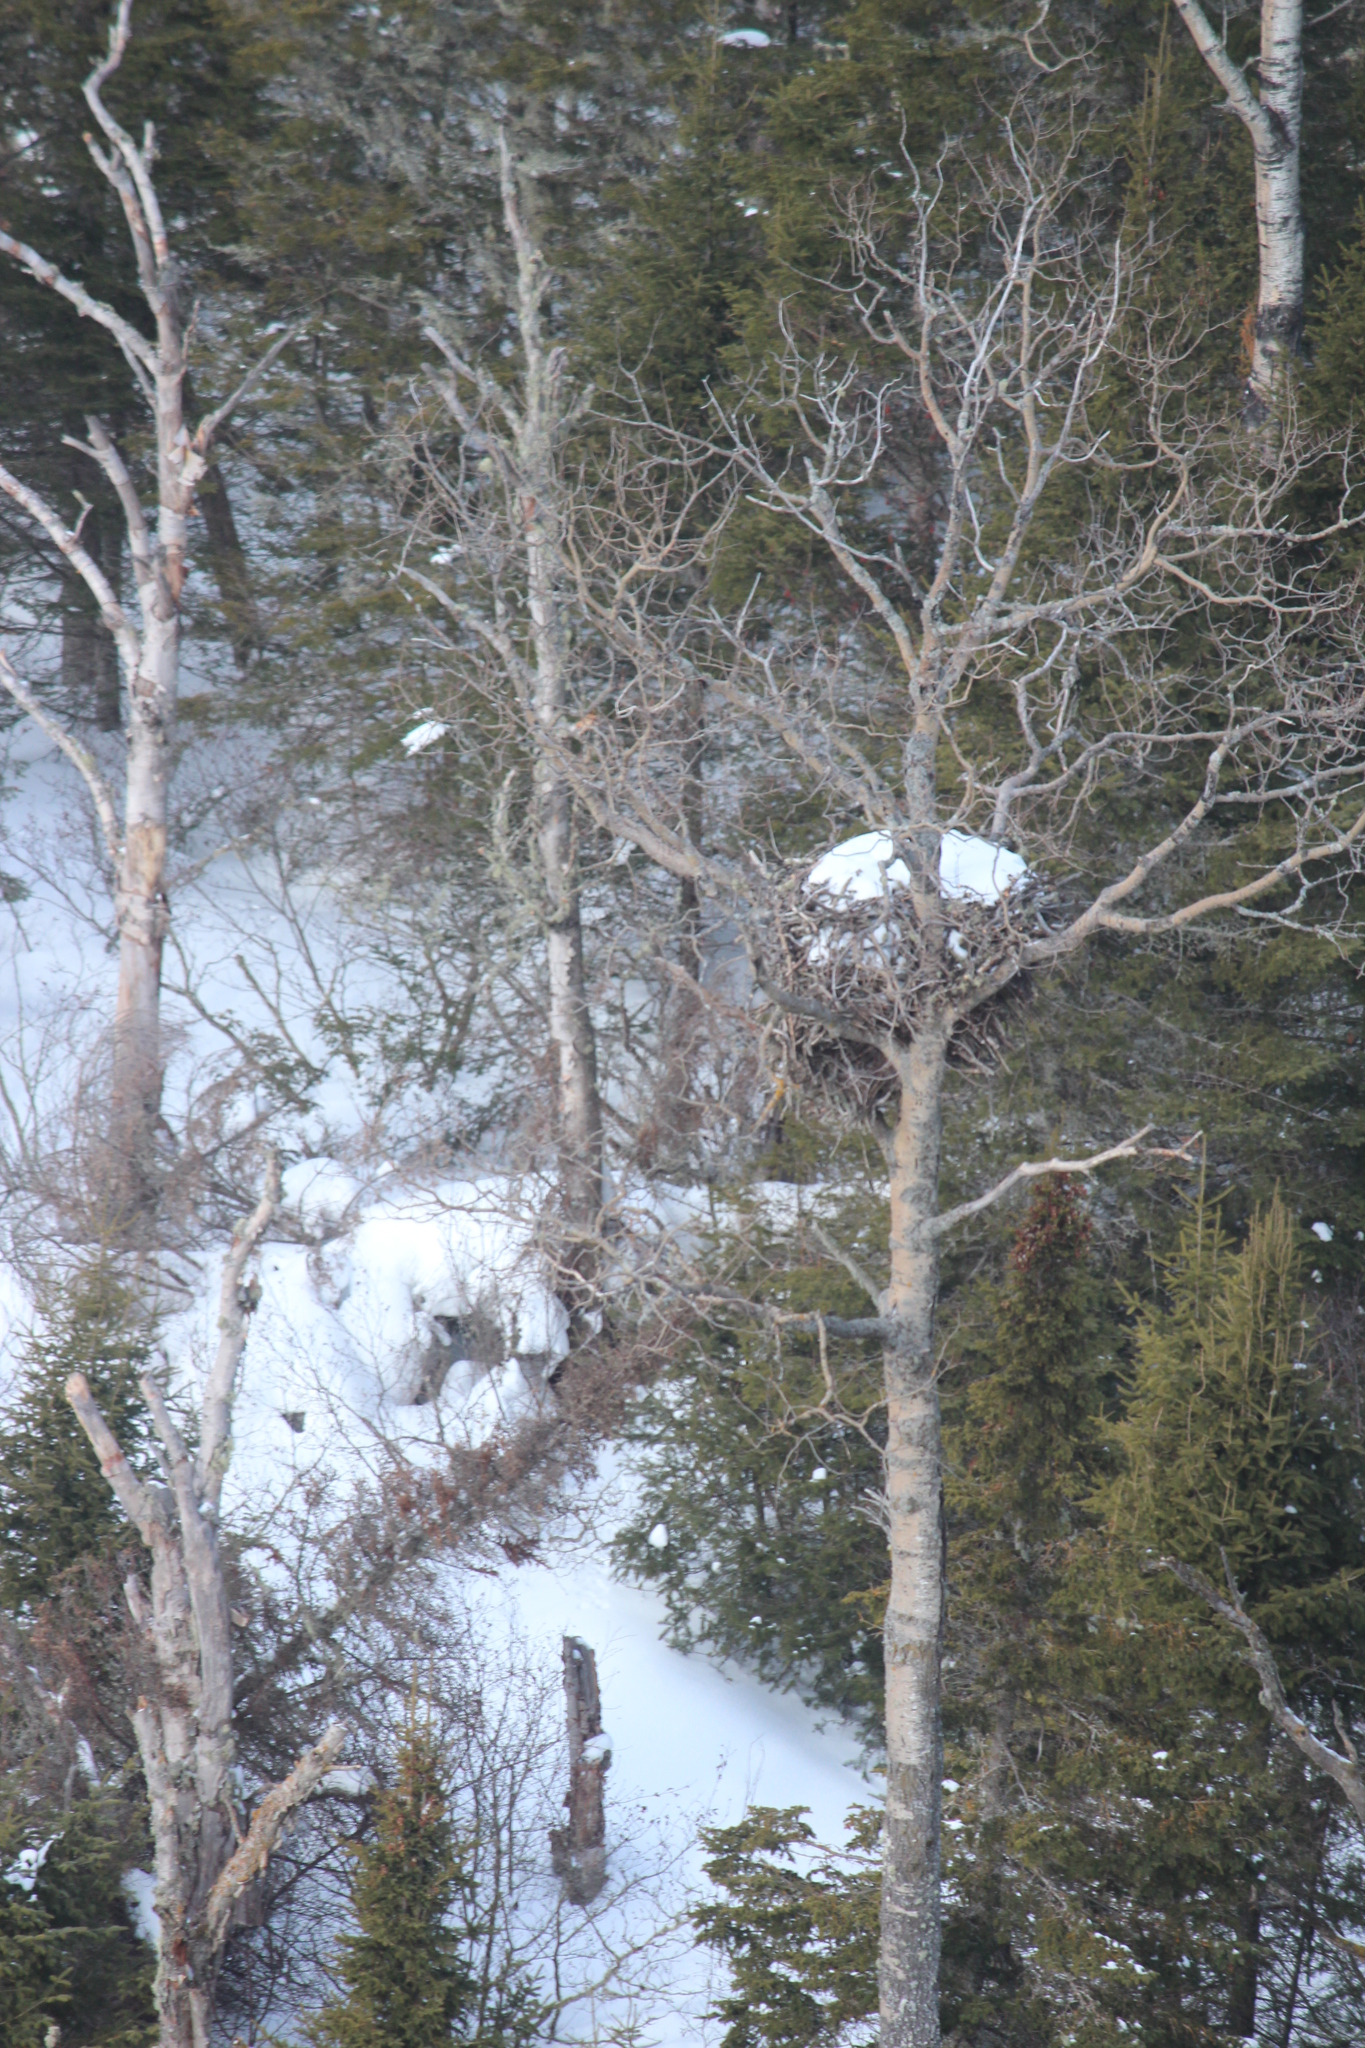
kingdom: Animalia
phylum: Chordata
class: Aves
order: Accipitriformes
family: Accipitridae
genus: Haliaeetus
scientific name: Haliaeetus leucocephalus
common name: Bald eagle
